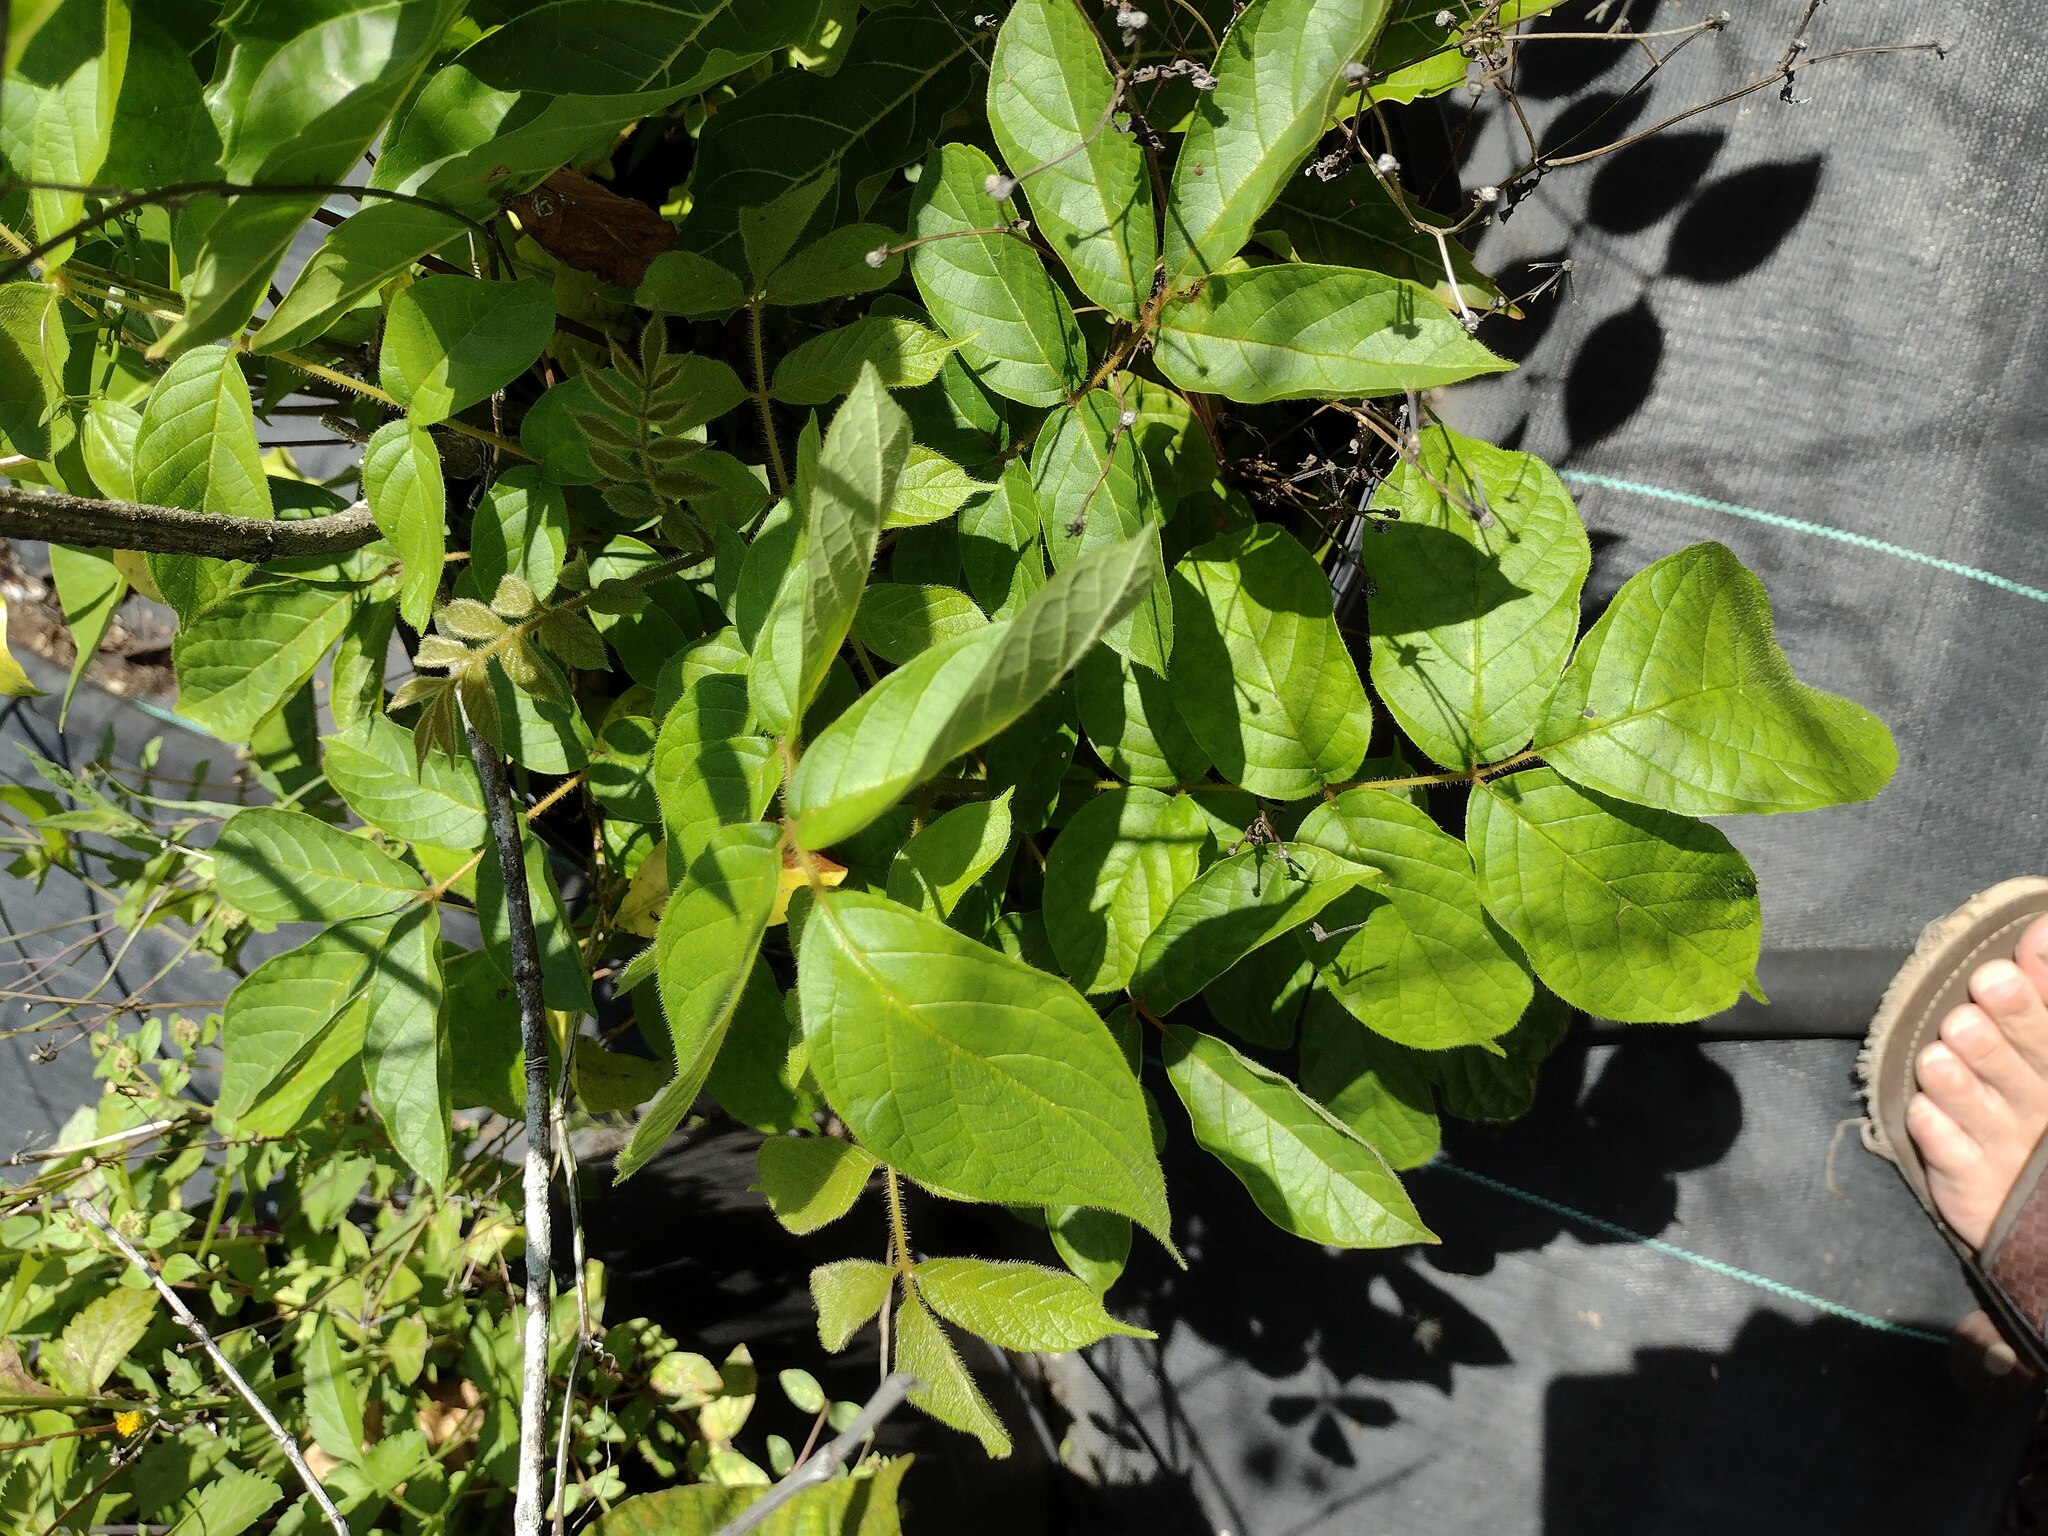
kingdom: Plantae
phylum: Tracheophyta
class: Magnoliopsida
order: Lamiales
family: Bignoniaceae
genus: Spathodea
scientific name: Spathodea campanulata
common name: African tuliptree
